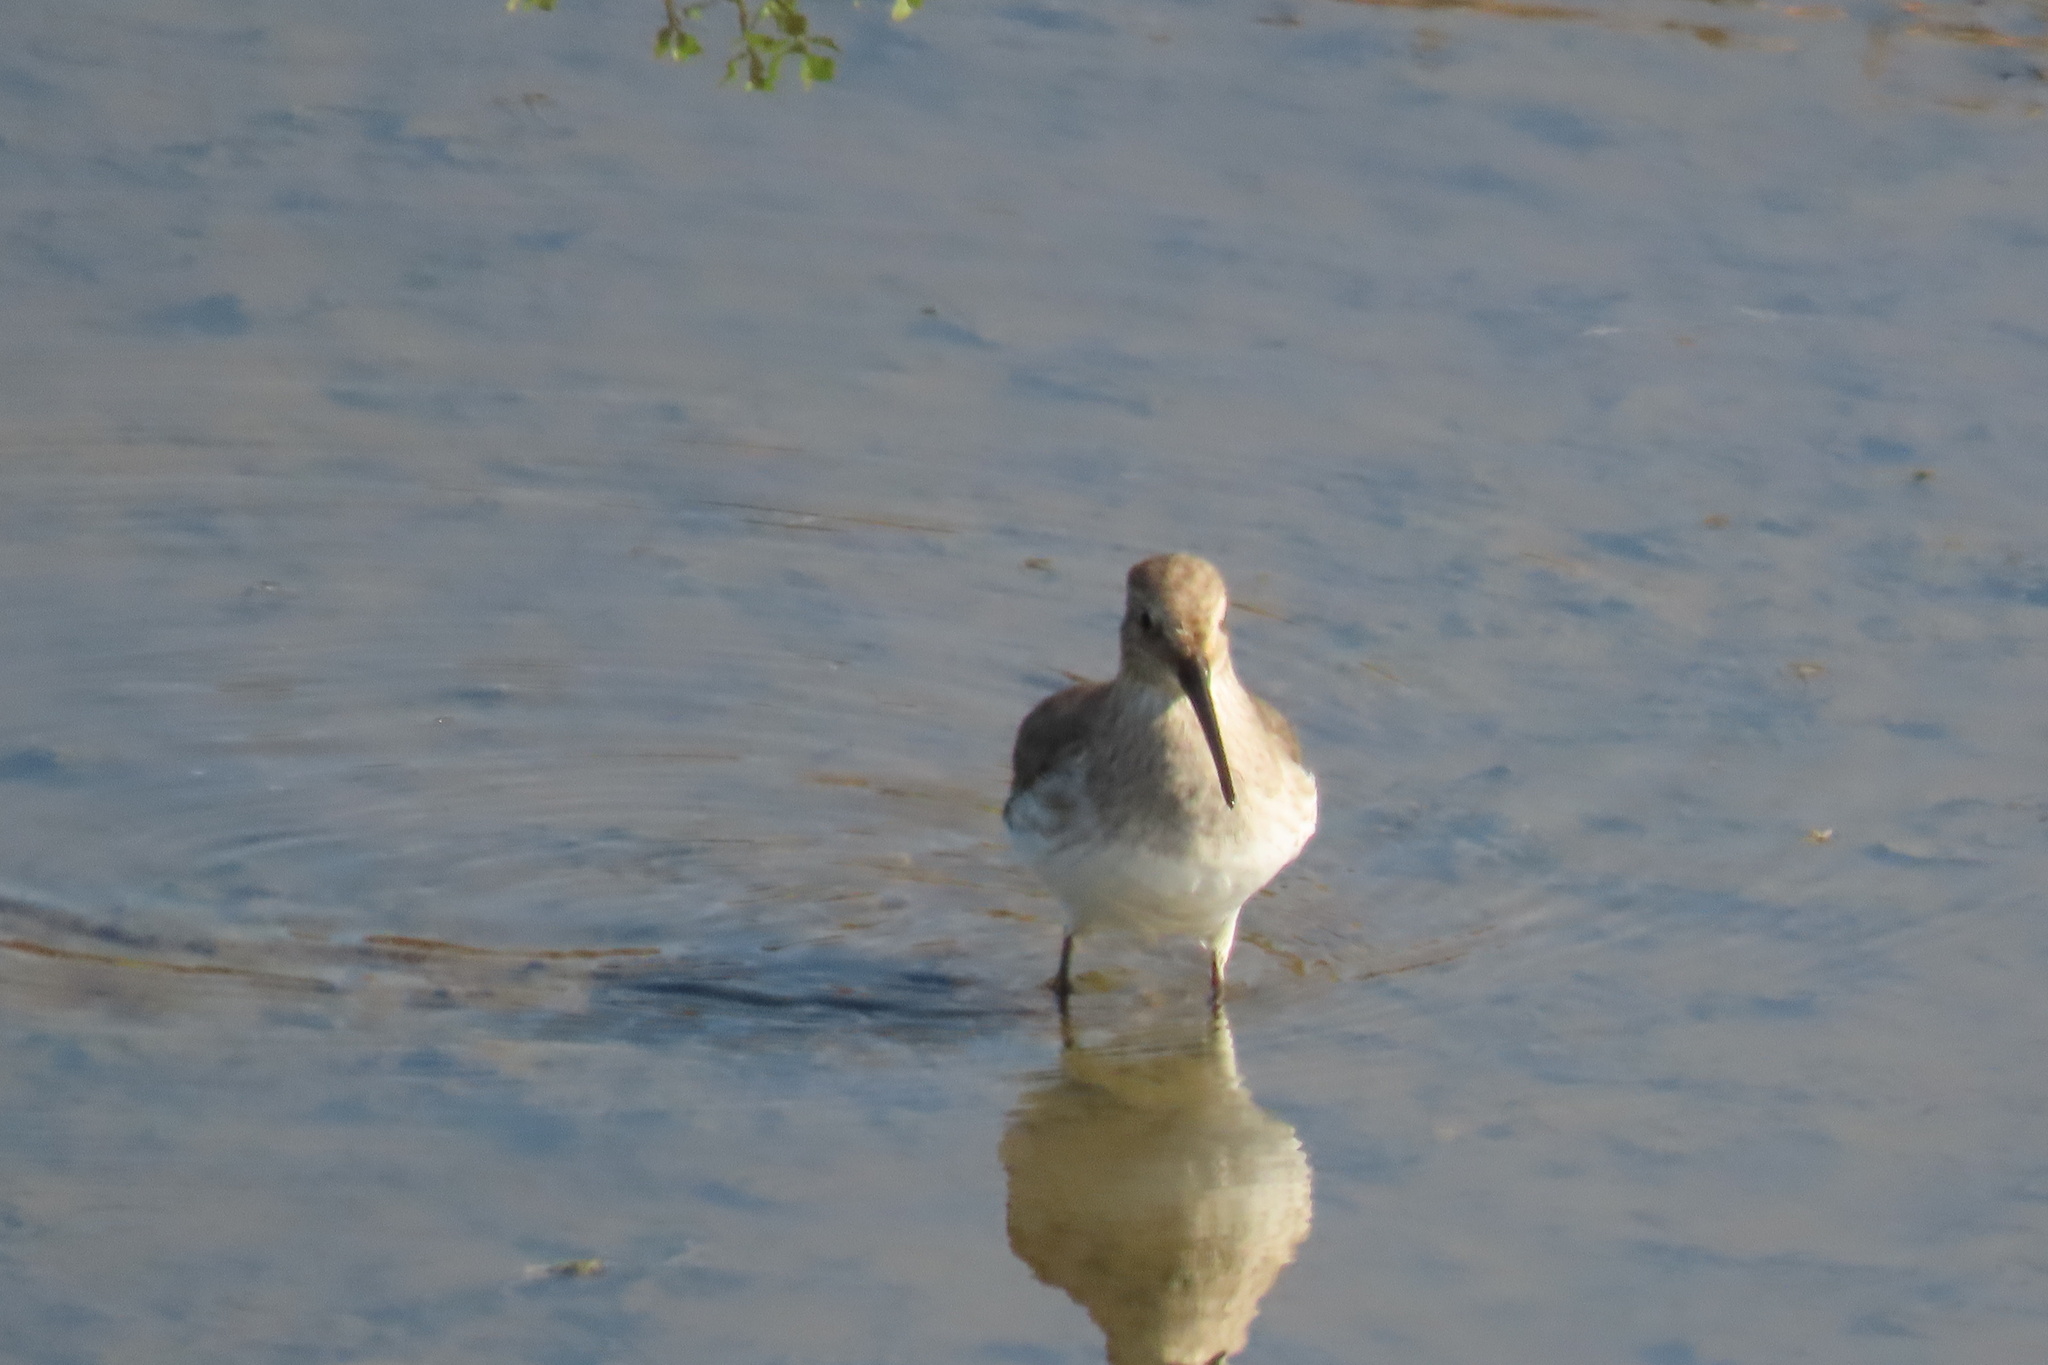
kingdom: Animalia
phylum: Chordata
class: Aves
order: Charadriiformes
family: Scolopacidae
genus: Calidris
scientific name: Calidris alpina
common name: Dunlin
